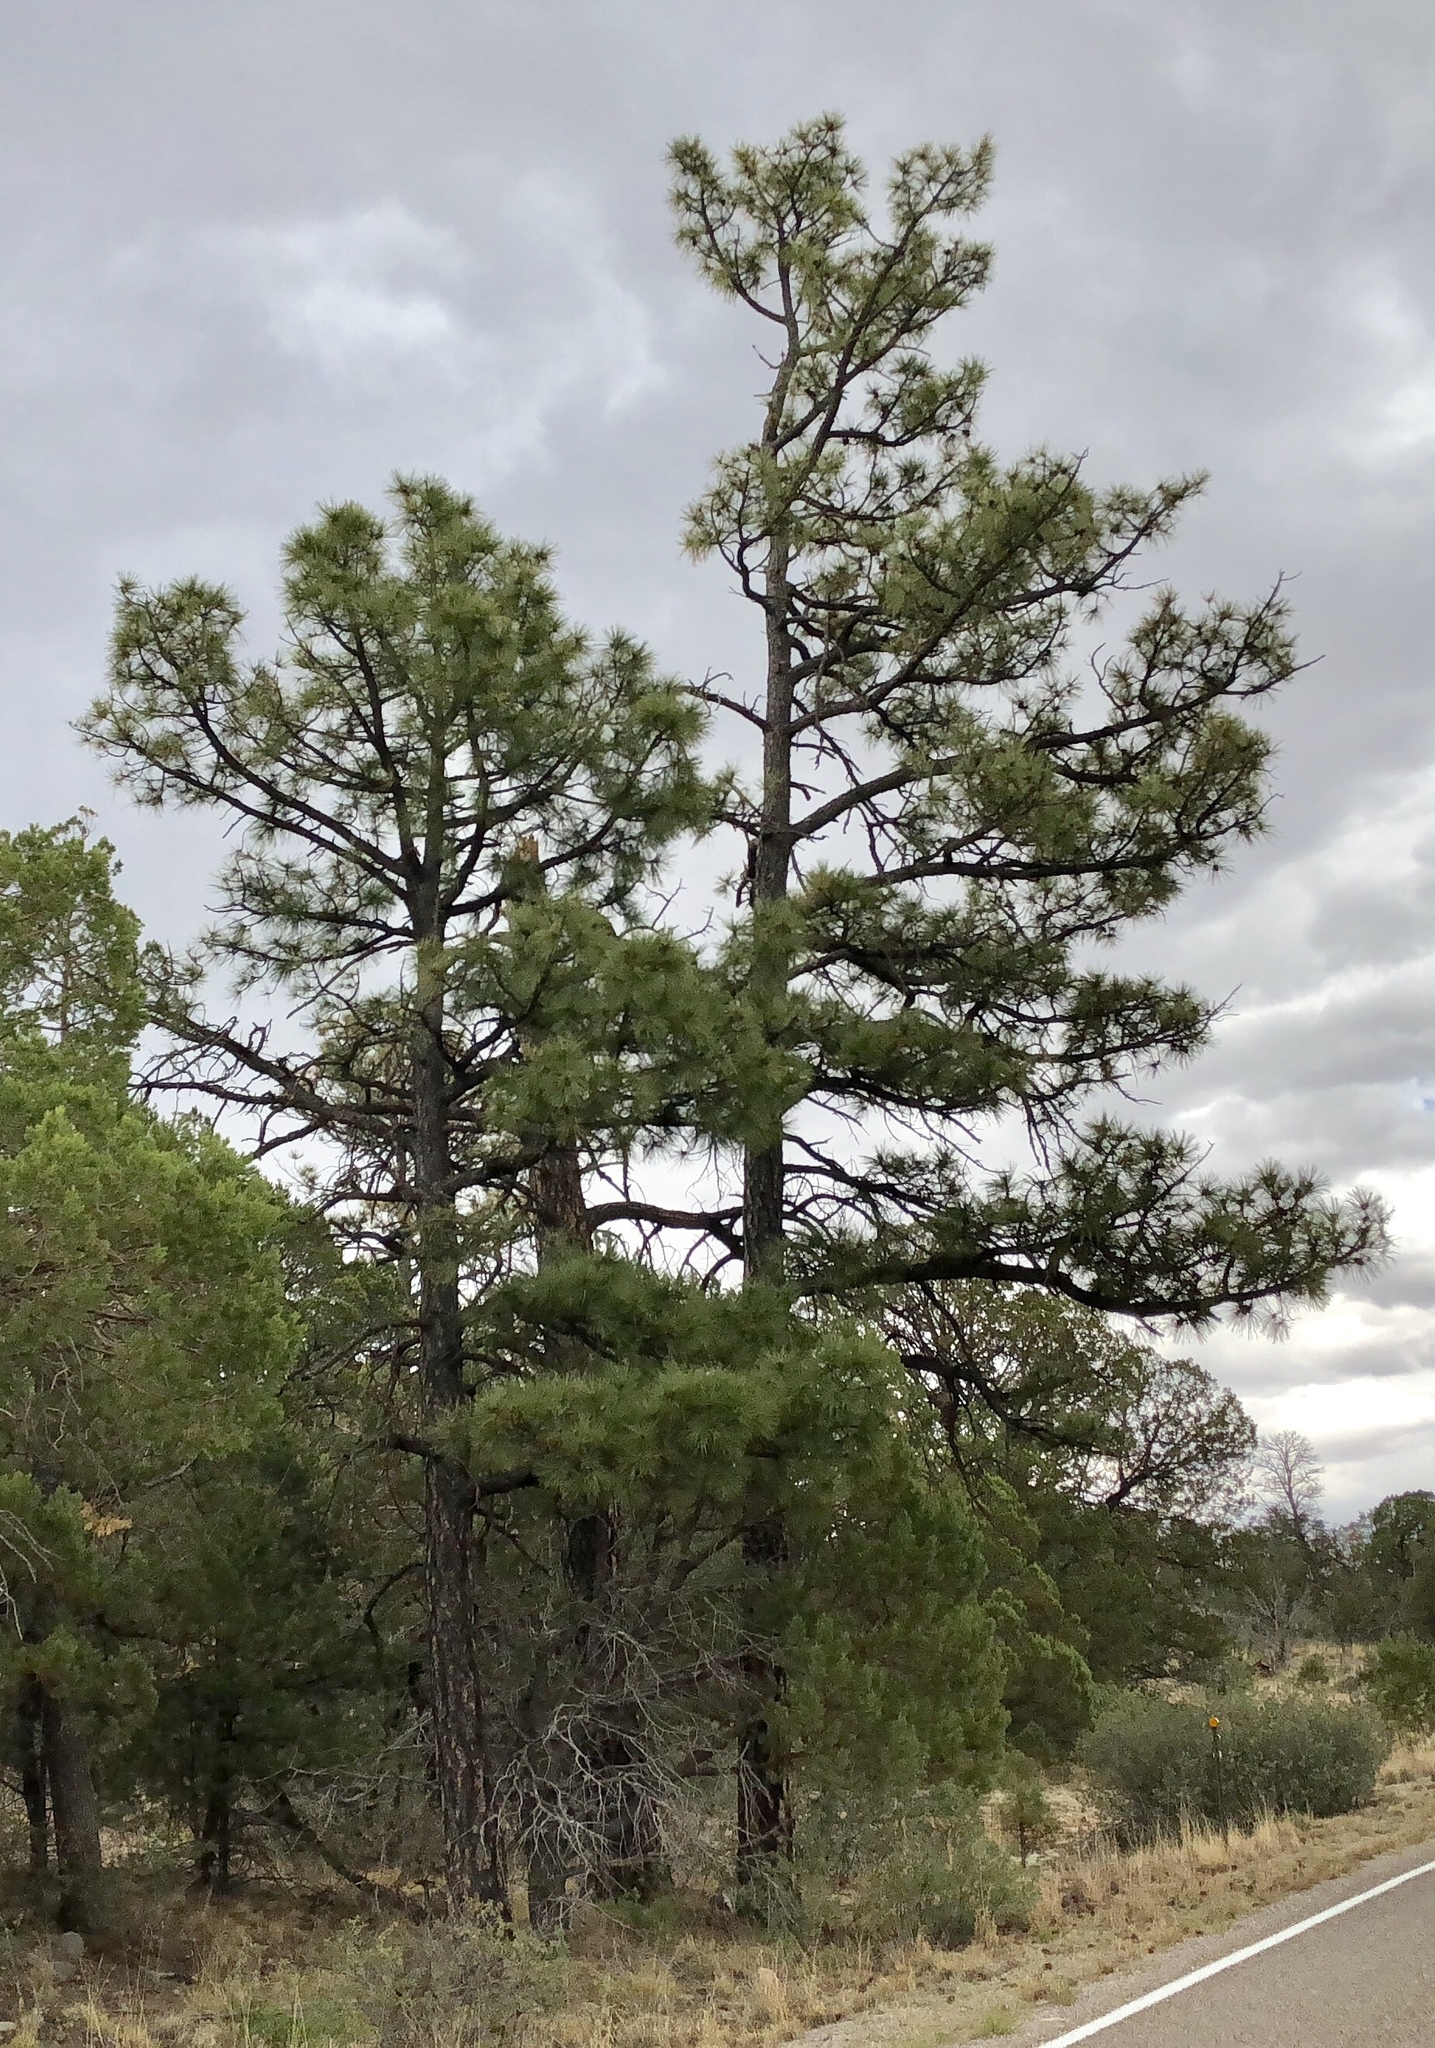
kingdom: Plantae
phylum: Tracheophyta
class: Pinopsida
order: Pinales
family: Pinaceae
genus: Pinus
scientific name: Pinus ponderosa
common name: Western yellow-pine
